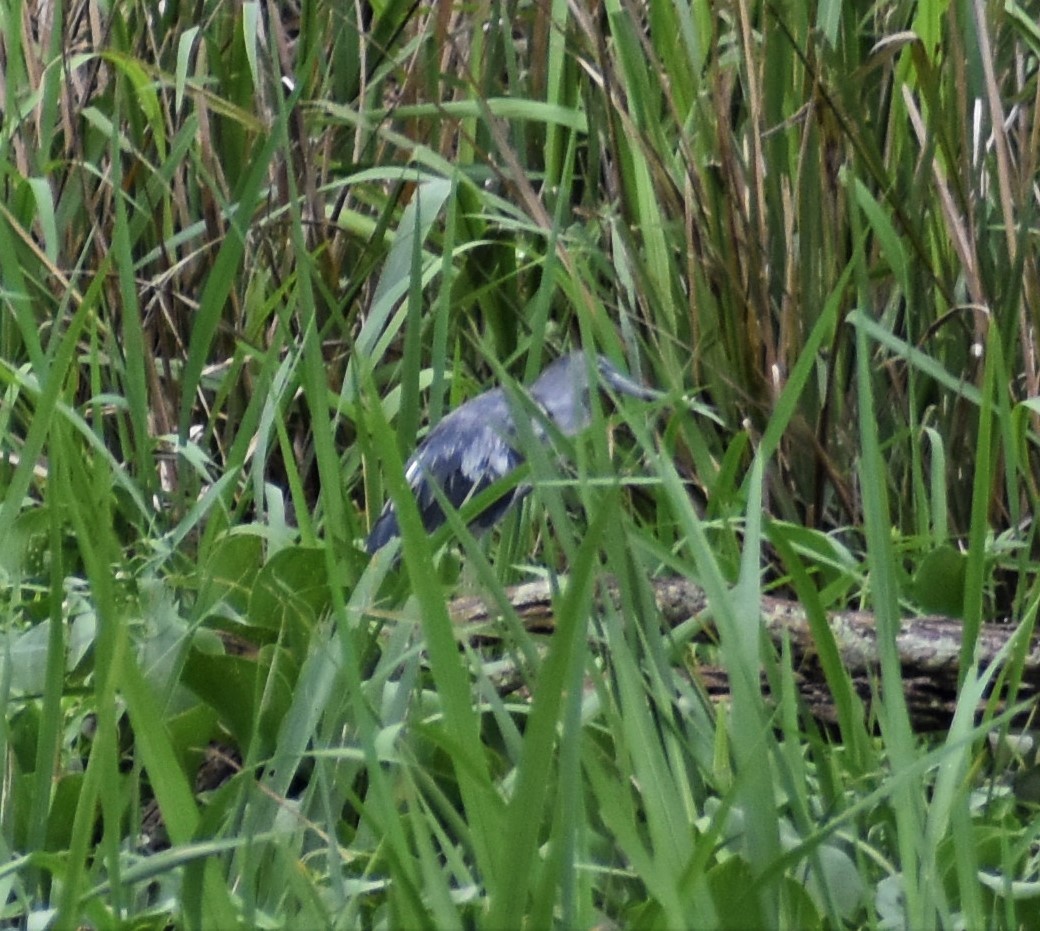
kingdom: Animalia
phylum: Chordata
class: Aves
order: Pelecaniformes
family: Ardeidae
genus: Egretta
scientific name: Egretta caerulea
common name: Little blue heron
